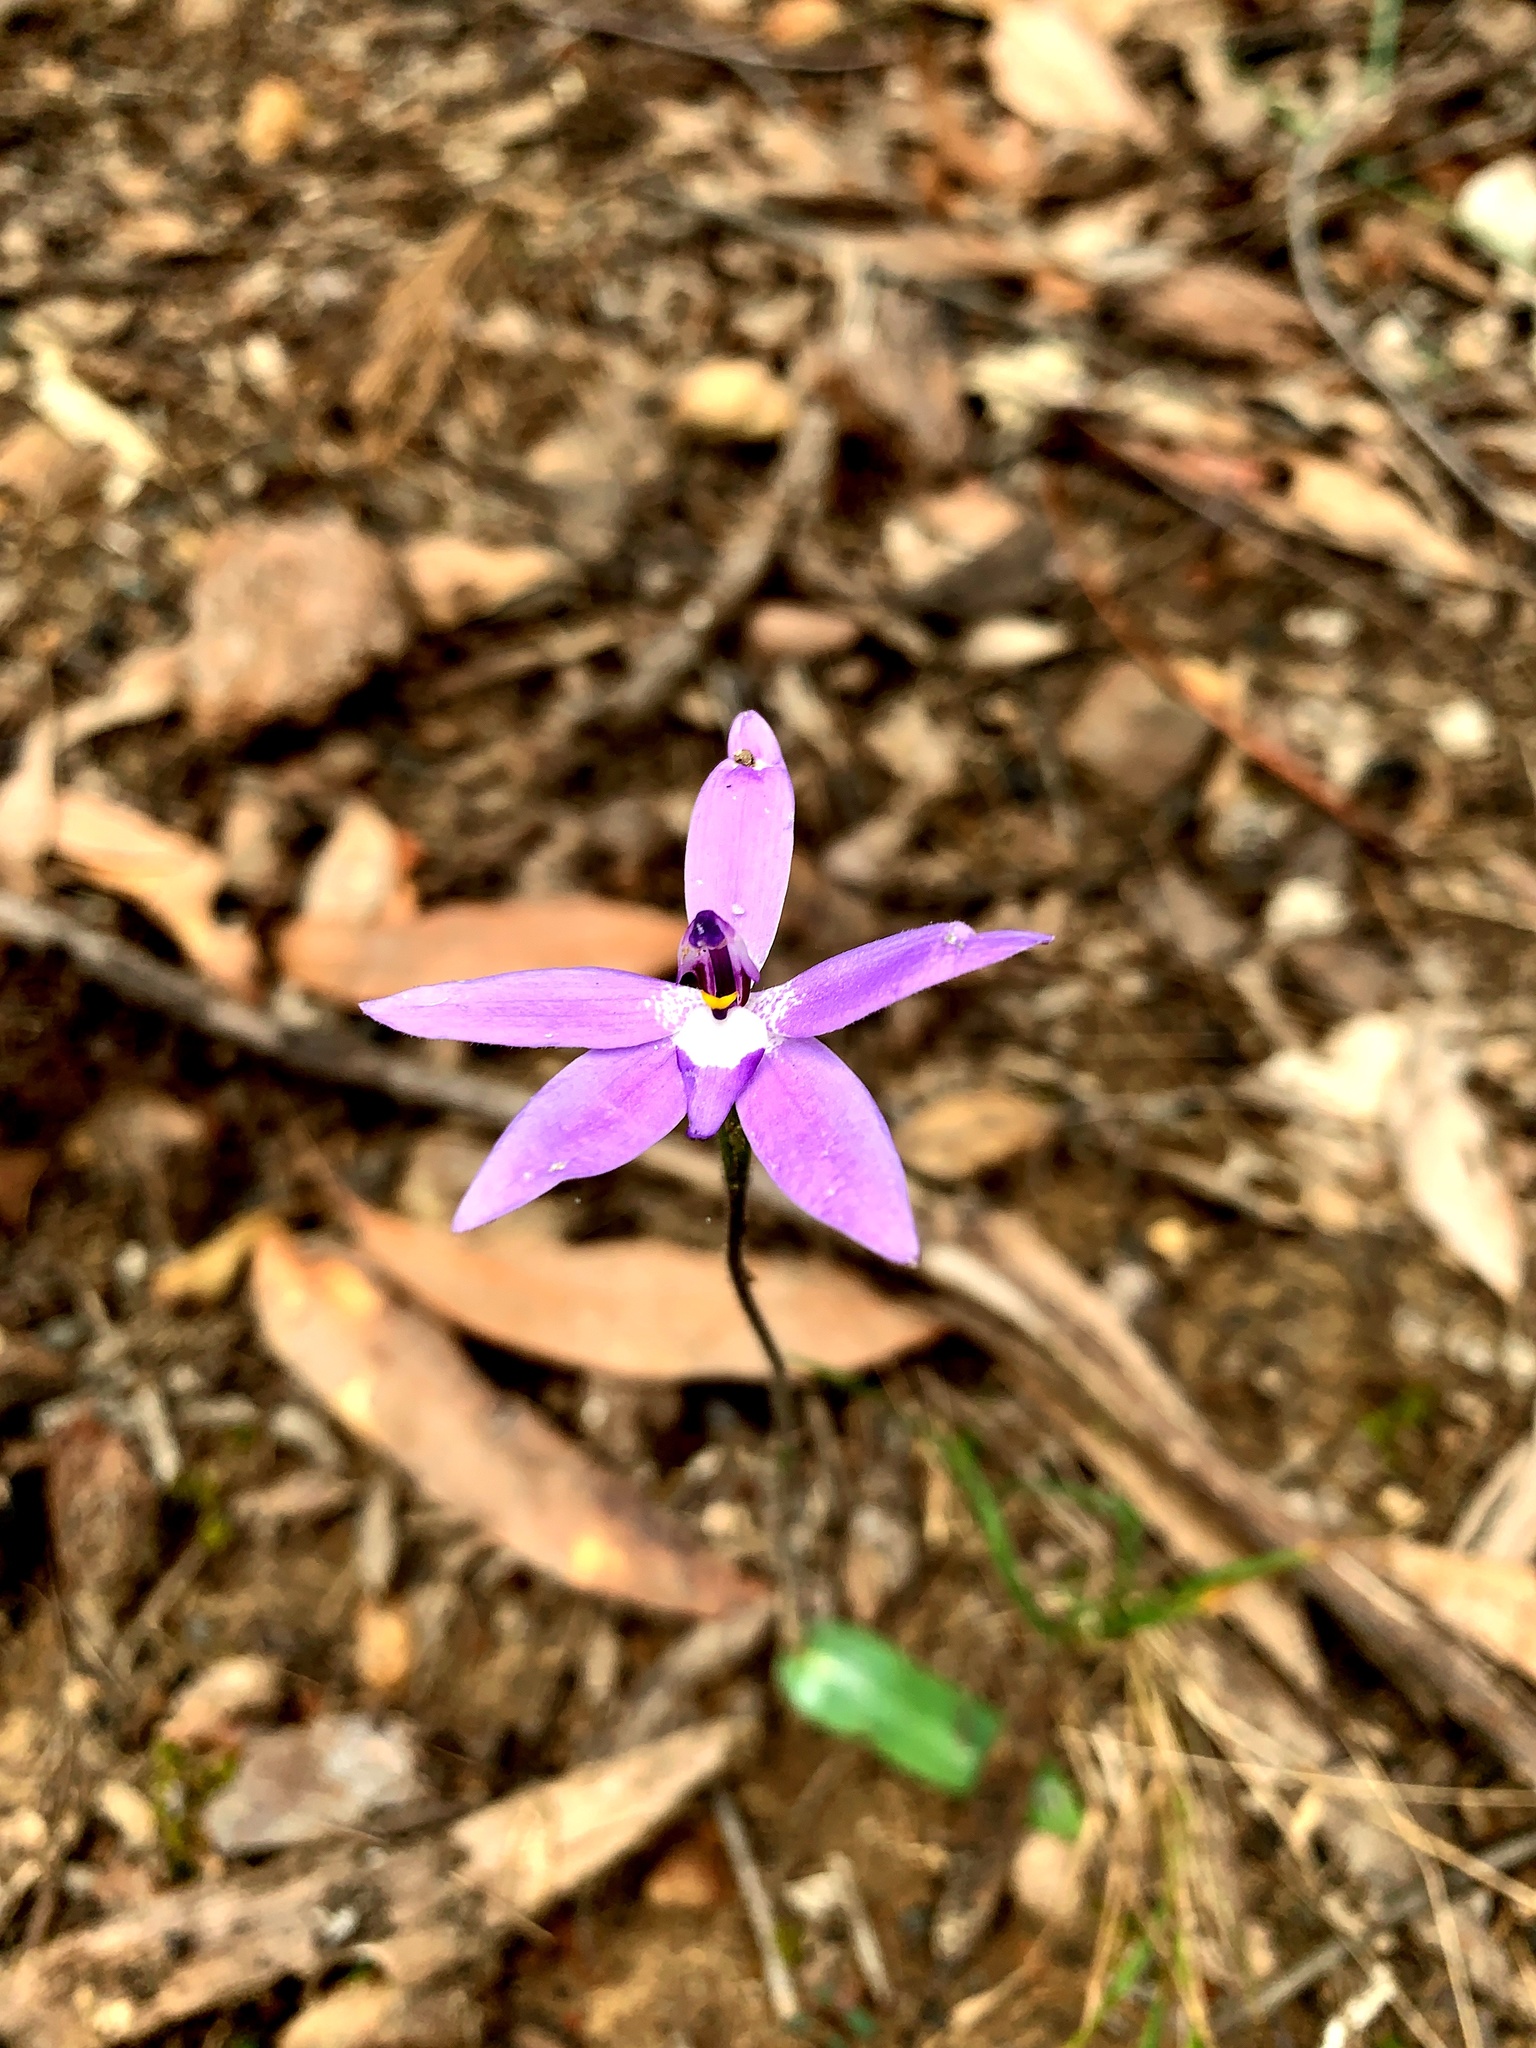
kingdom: Plantae
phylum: Tracheophyta
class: Liliopsida
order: Asparagales
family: Orchidaceae
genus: Caladenia
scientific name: Caladenia major
